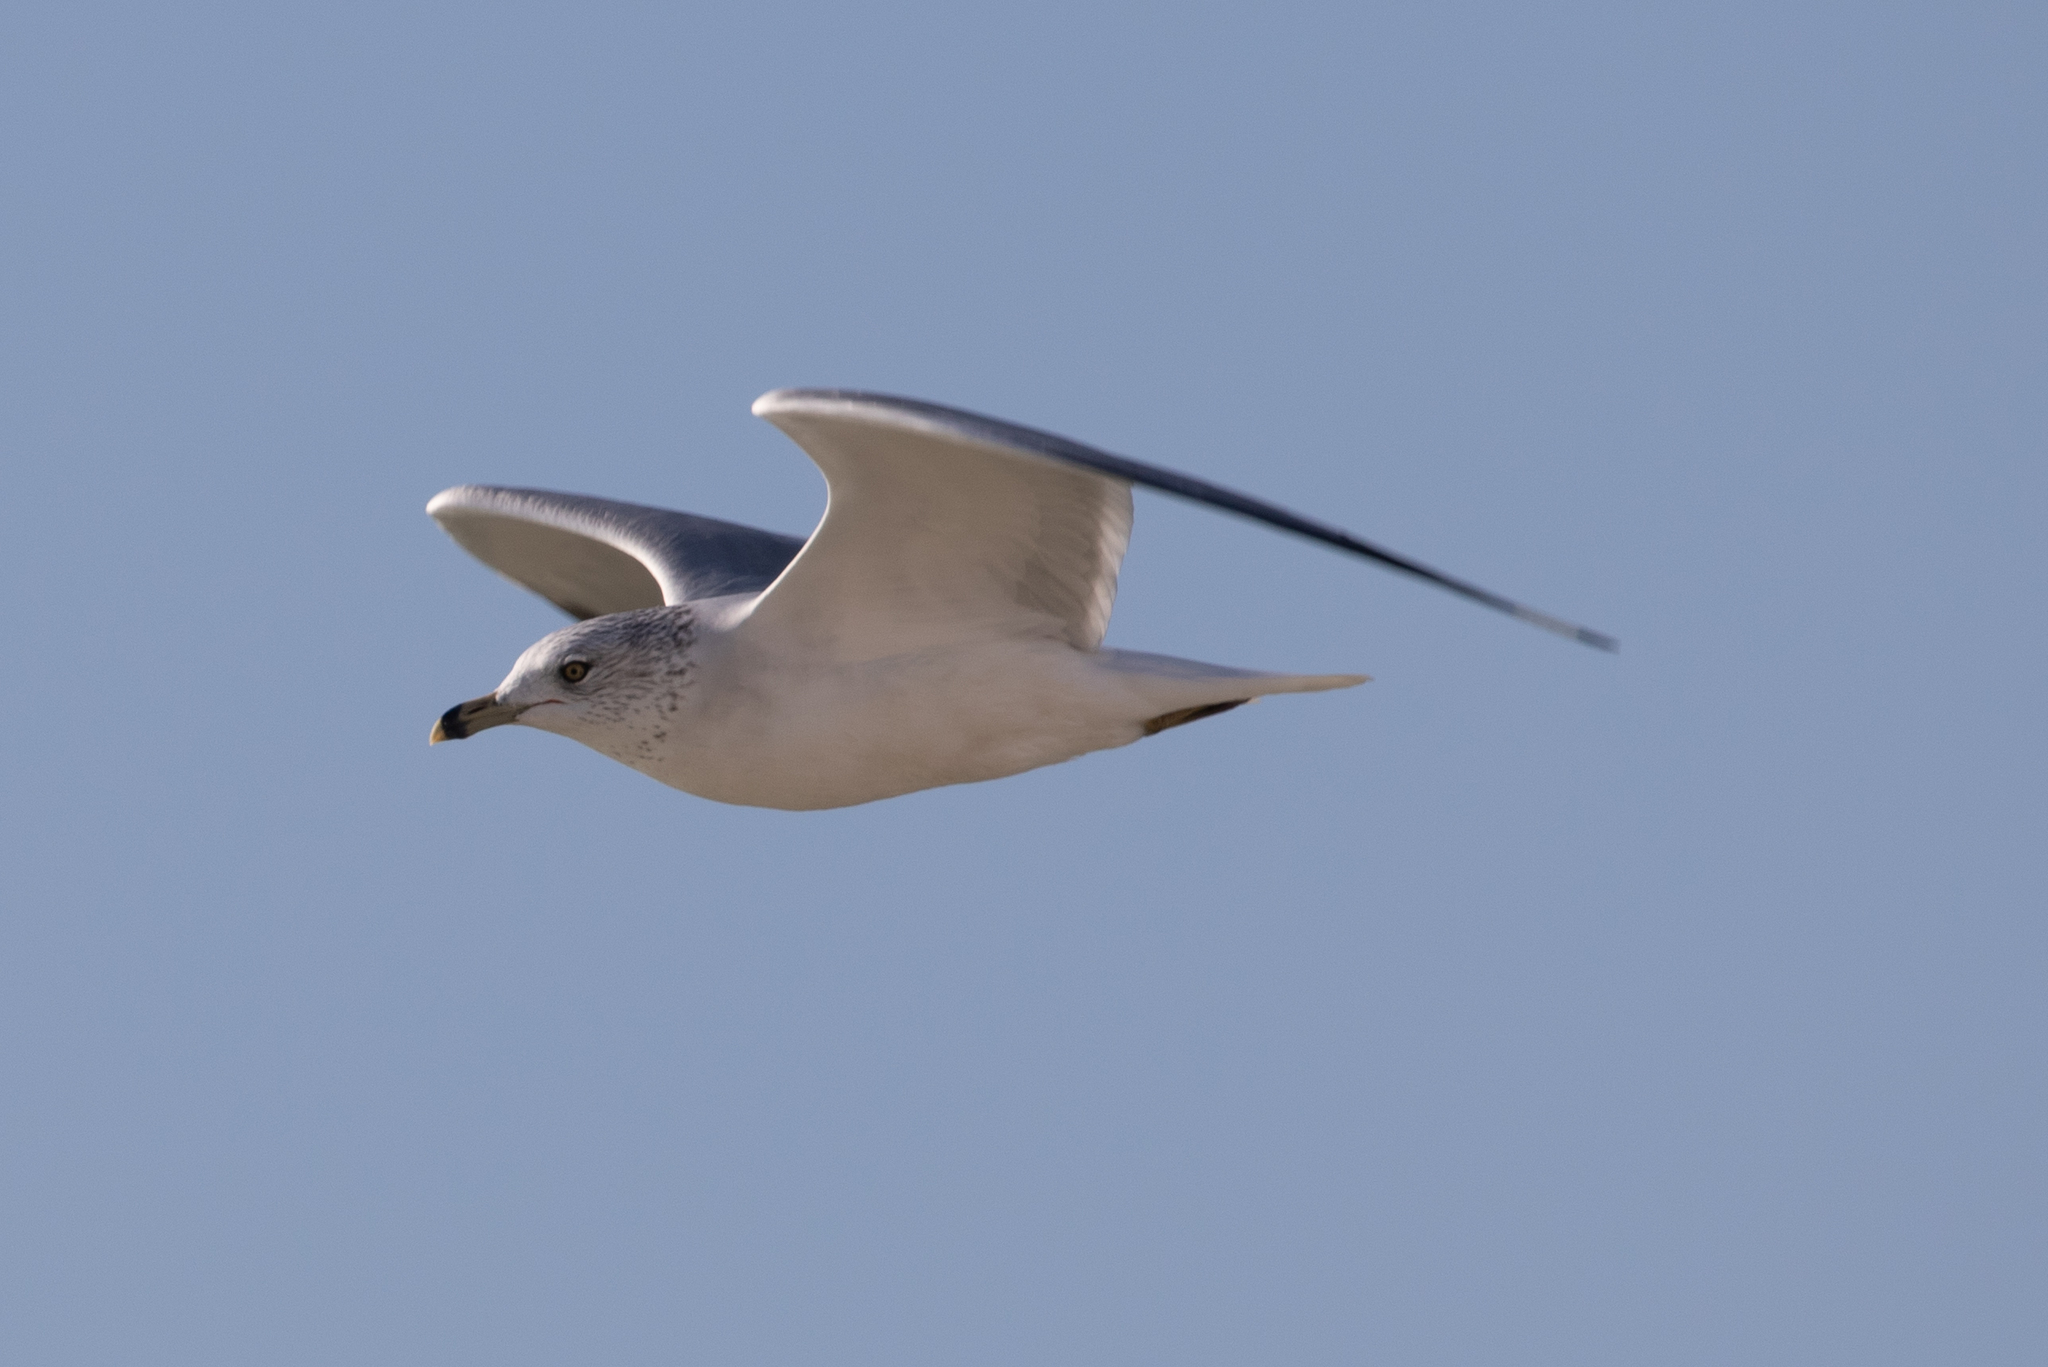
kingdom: Animalia
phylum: Chordata
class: Aves
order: Charadriiformes
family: Laridae
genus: Larus
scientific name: Larus delawarensis
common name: Ring-billed gull
